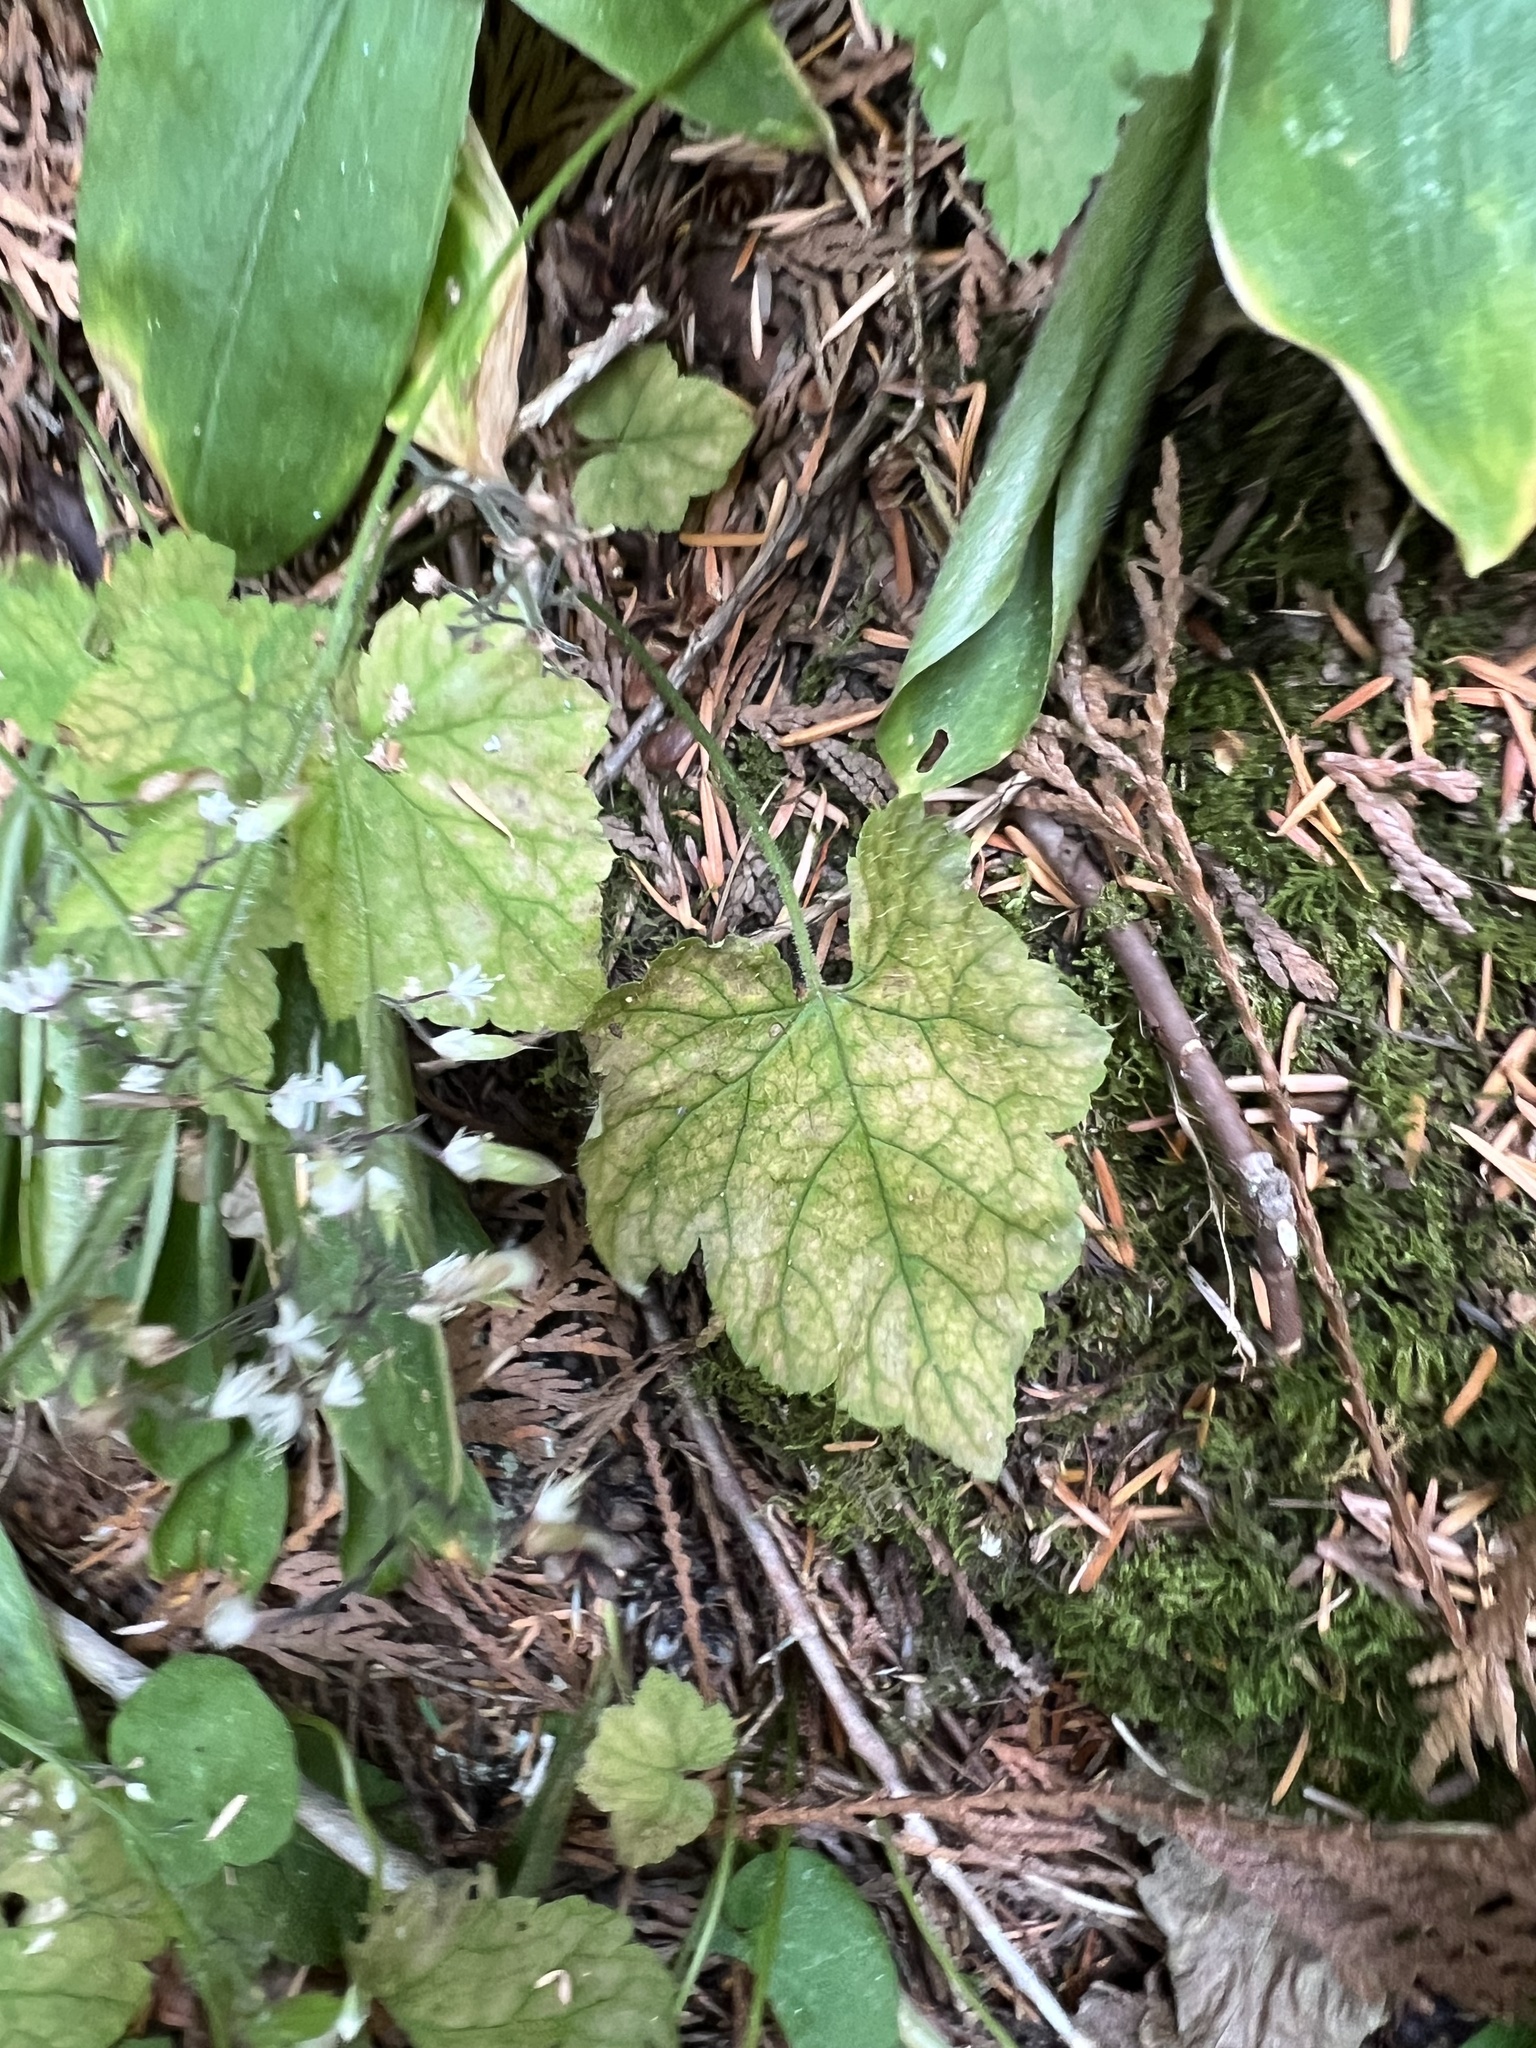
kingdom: Plantae
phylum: Tracheophyta
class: Magnoliopsida
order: Saxifragales
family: Saxifragaceae
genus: Tiarella
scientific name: Tiarella trifoliata
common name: Sugar-scoop
